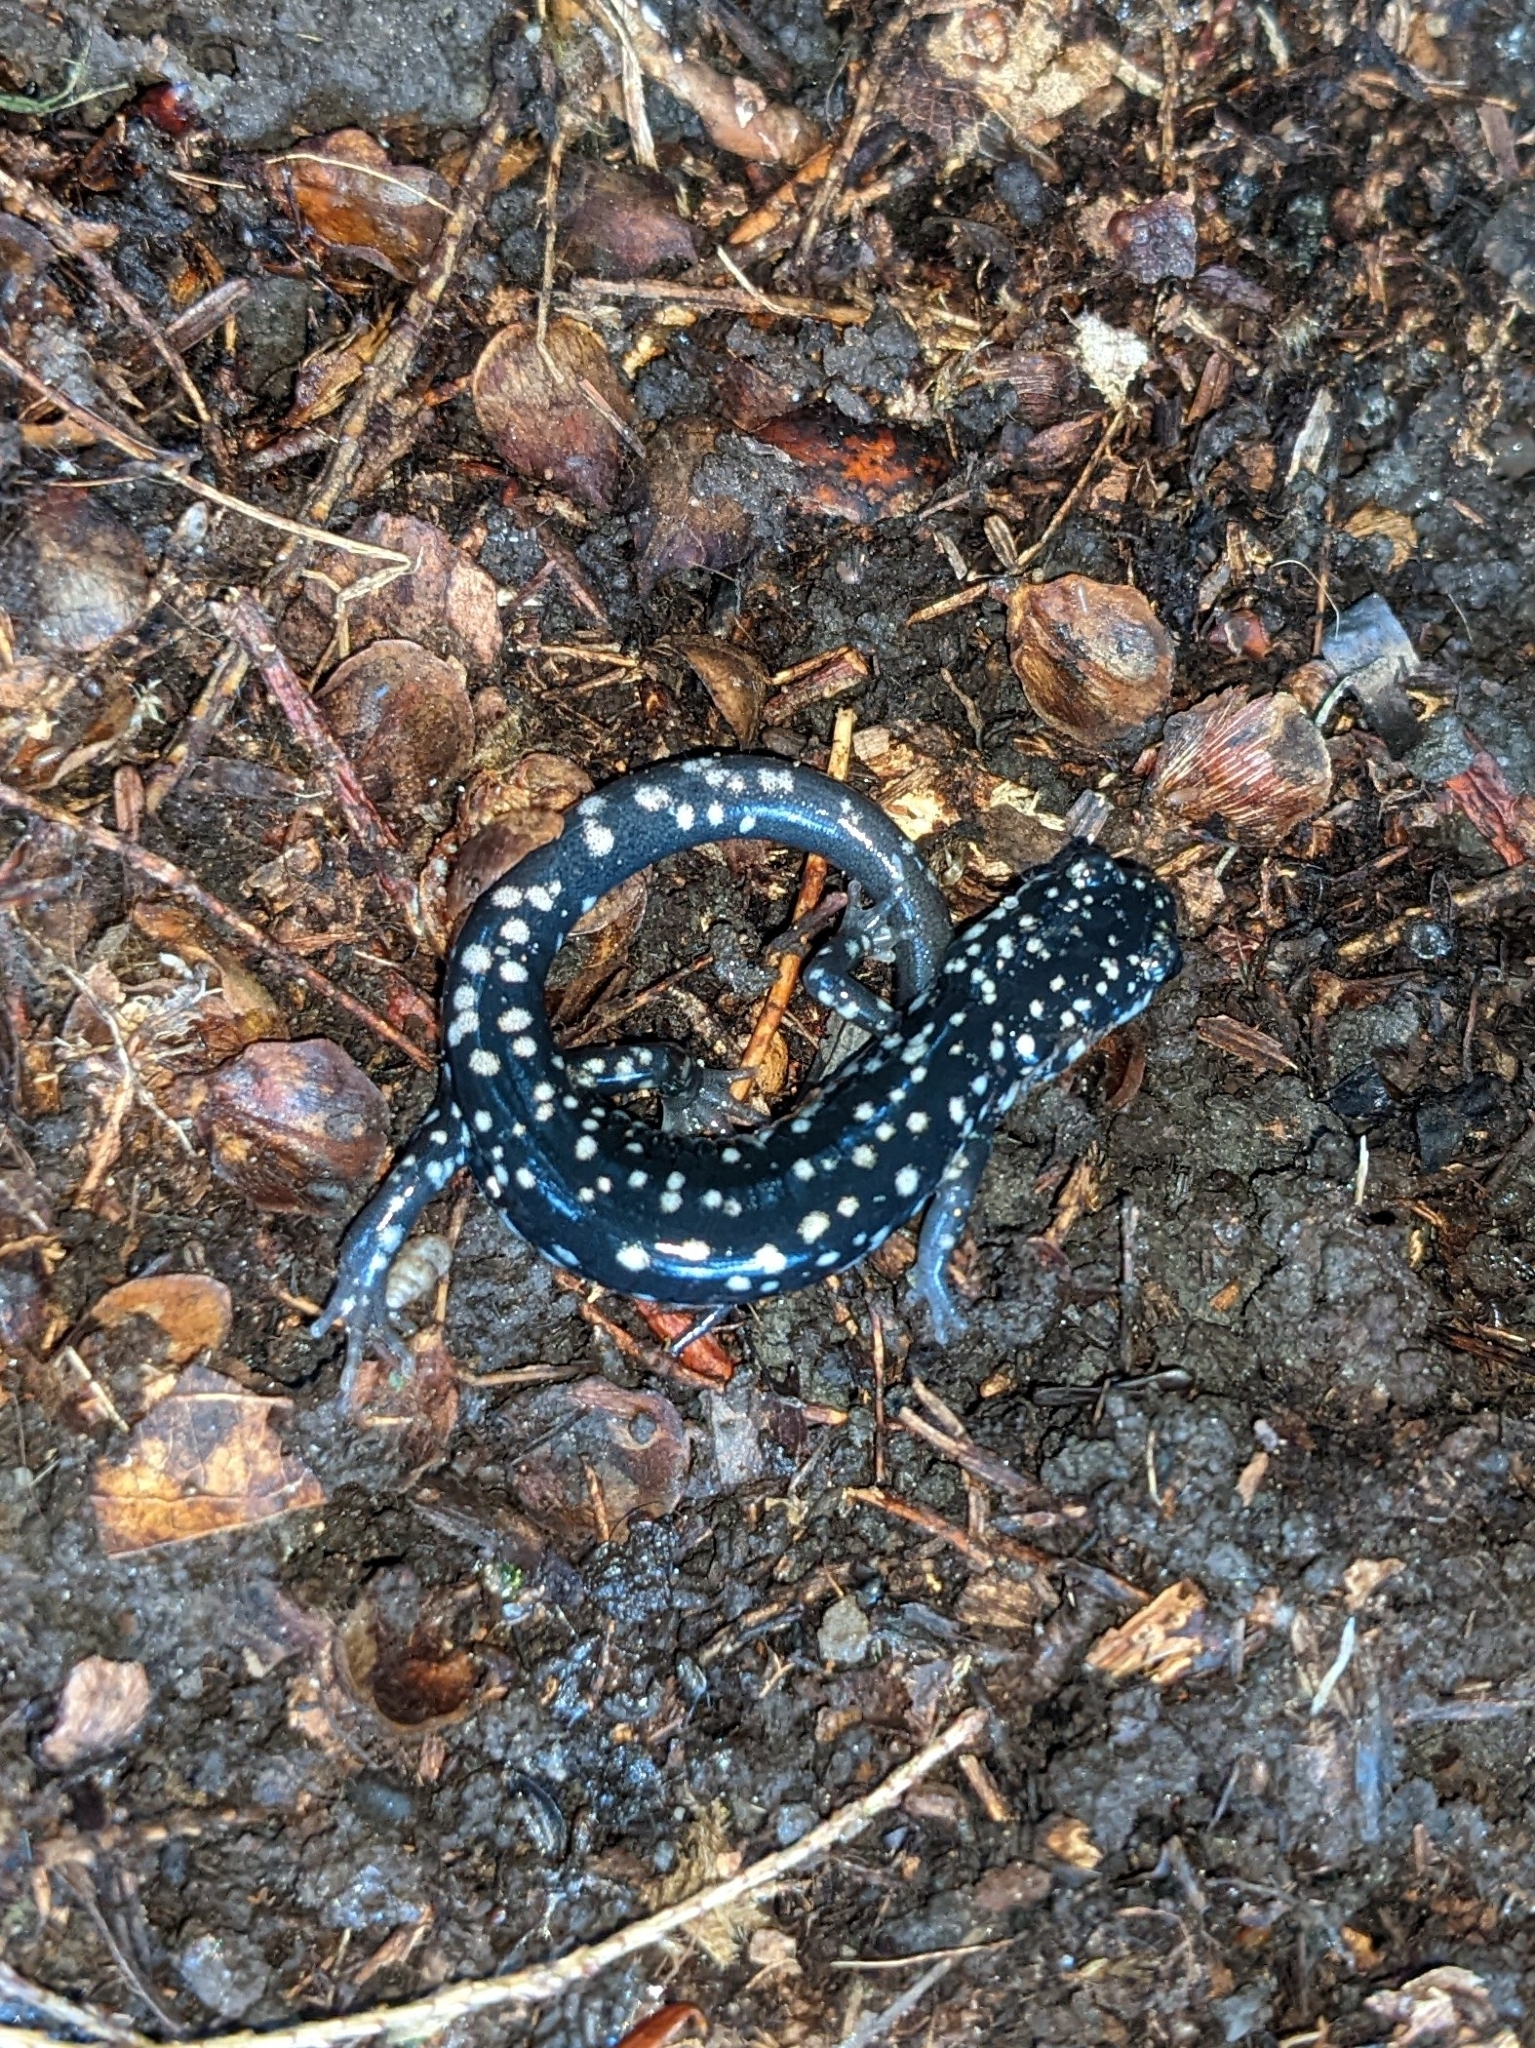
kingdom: Animalia
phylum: Chordata
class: Amphibia
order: Caudata
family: Plethodontidae
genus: Plethodon
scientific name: Plethodon glutinosus
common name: Northern slimy salamander
